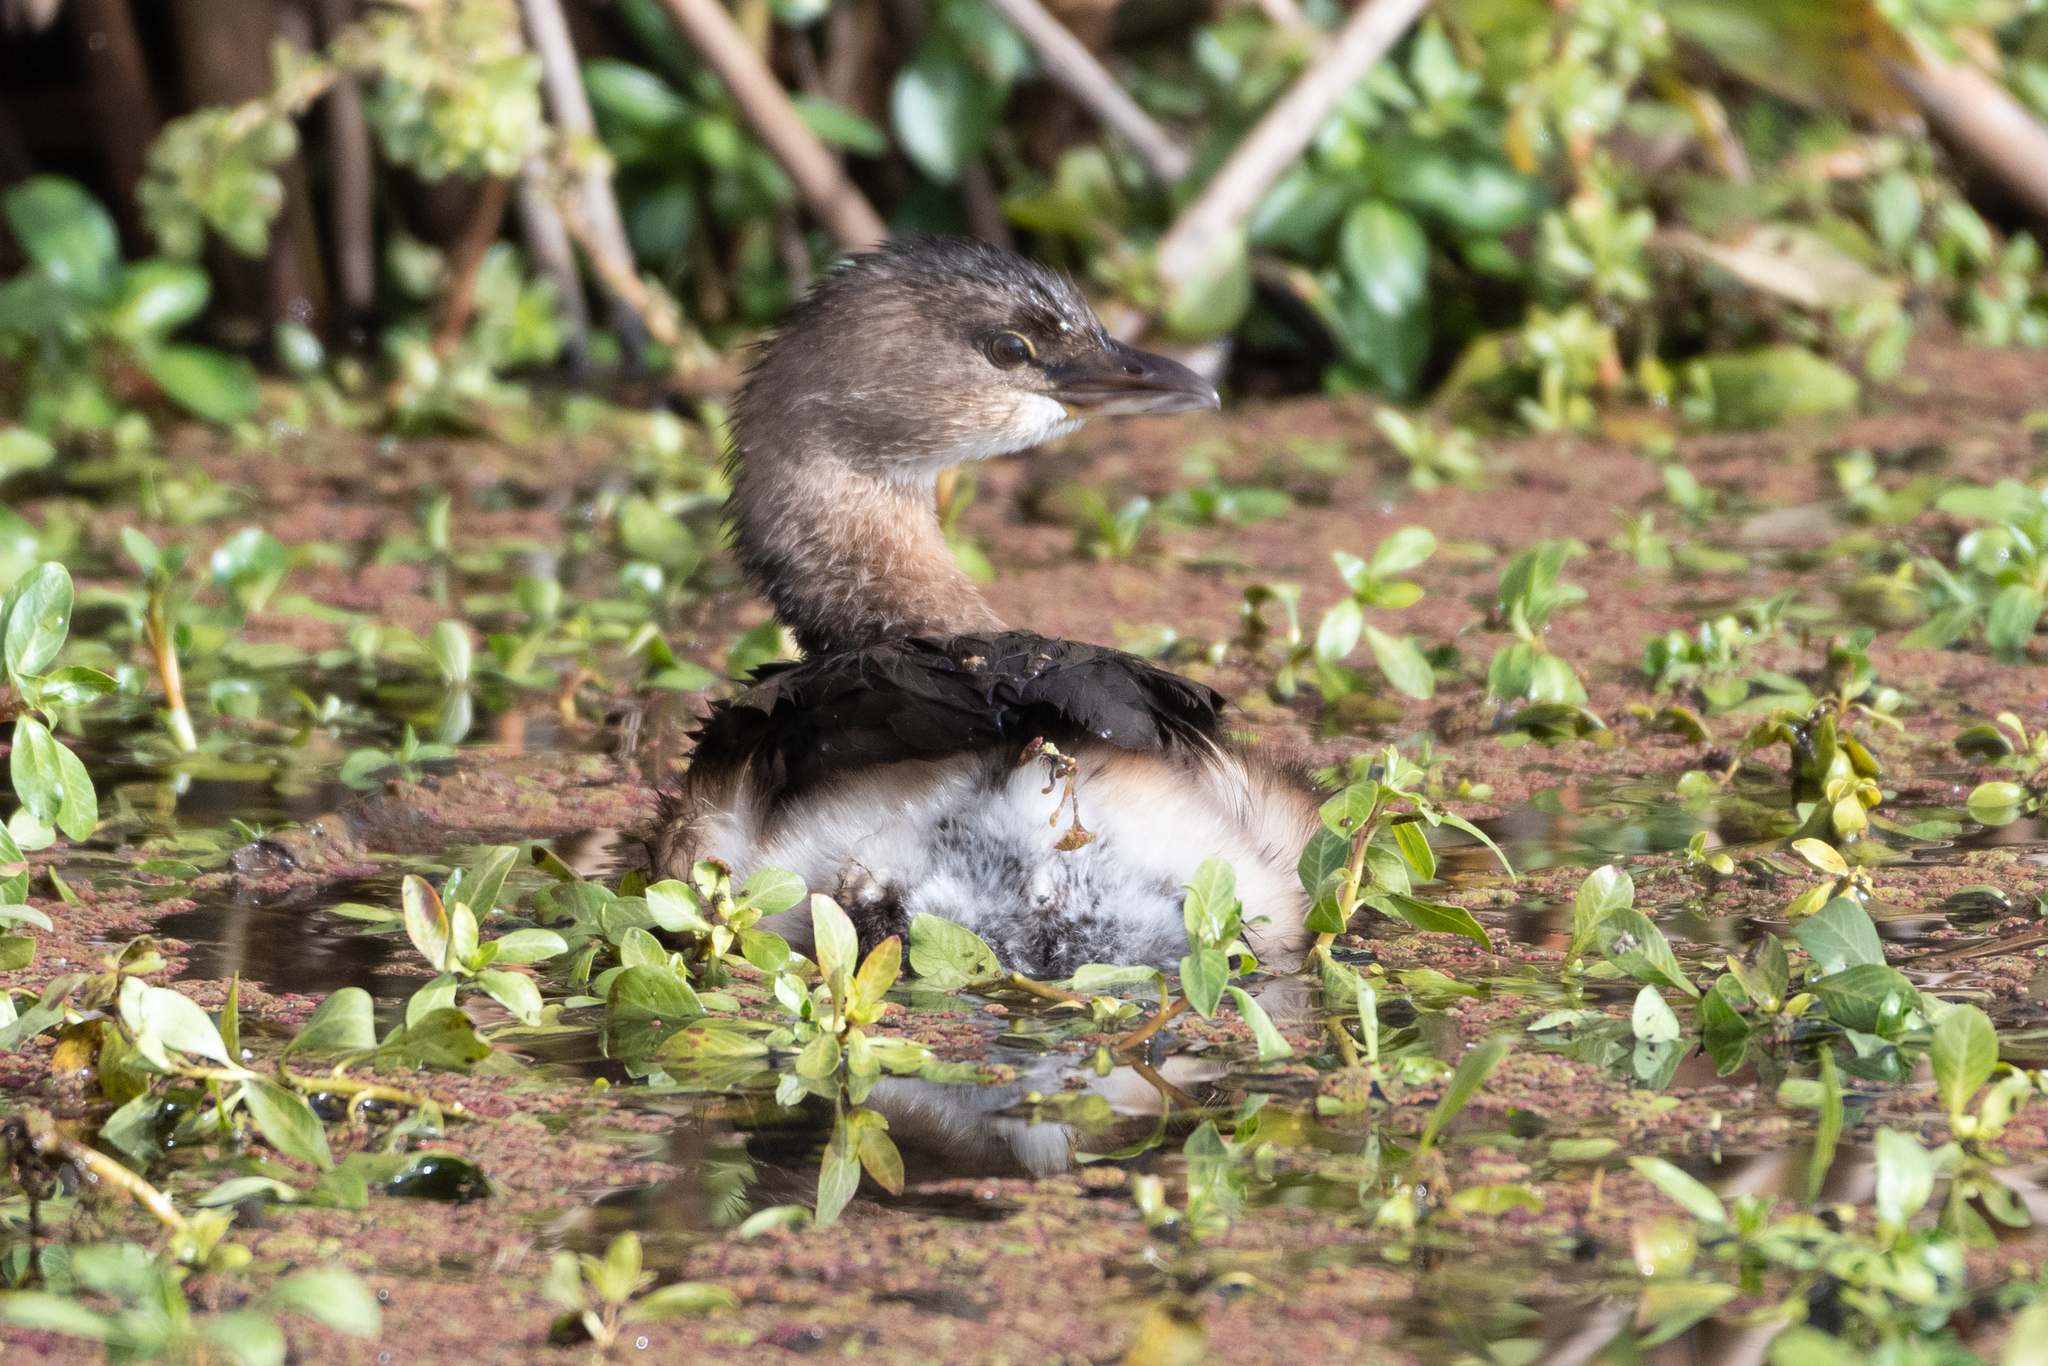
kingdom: Animalia
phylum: Chordata
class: Aves
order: Podicipediformes
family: Podicipedidae
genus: Podilymbus
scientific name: Podilymbus podiceps
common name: Pied-billed grebe
